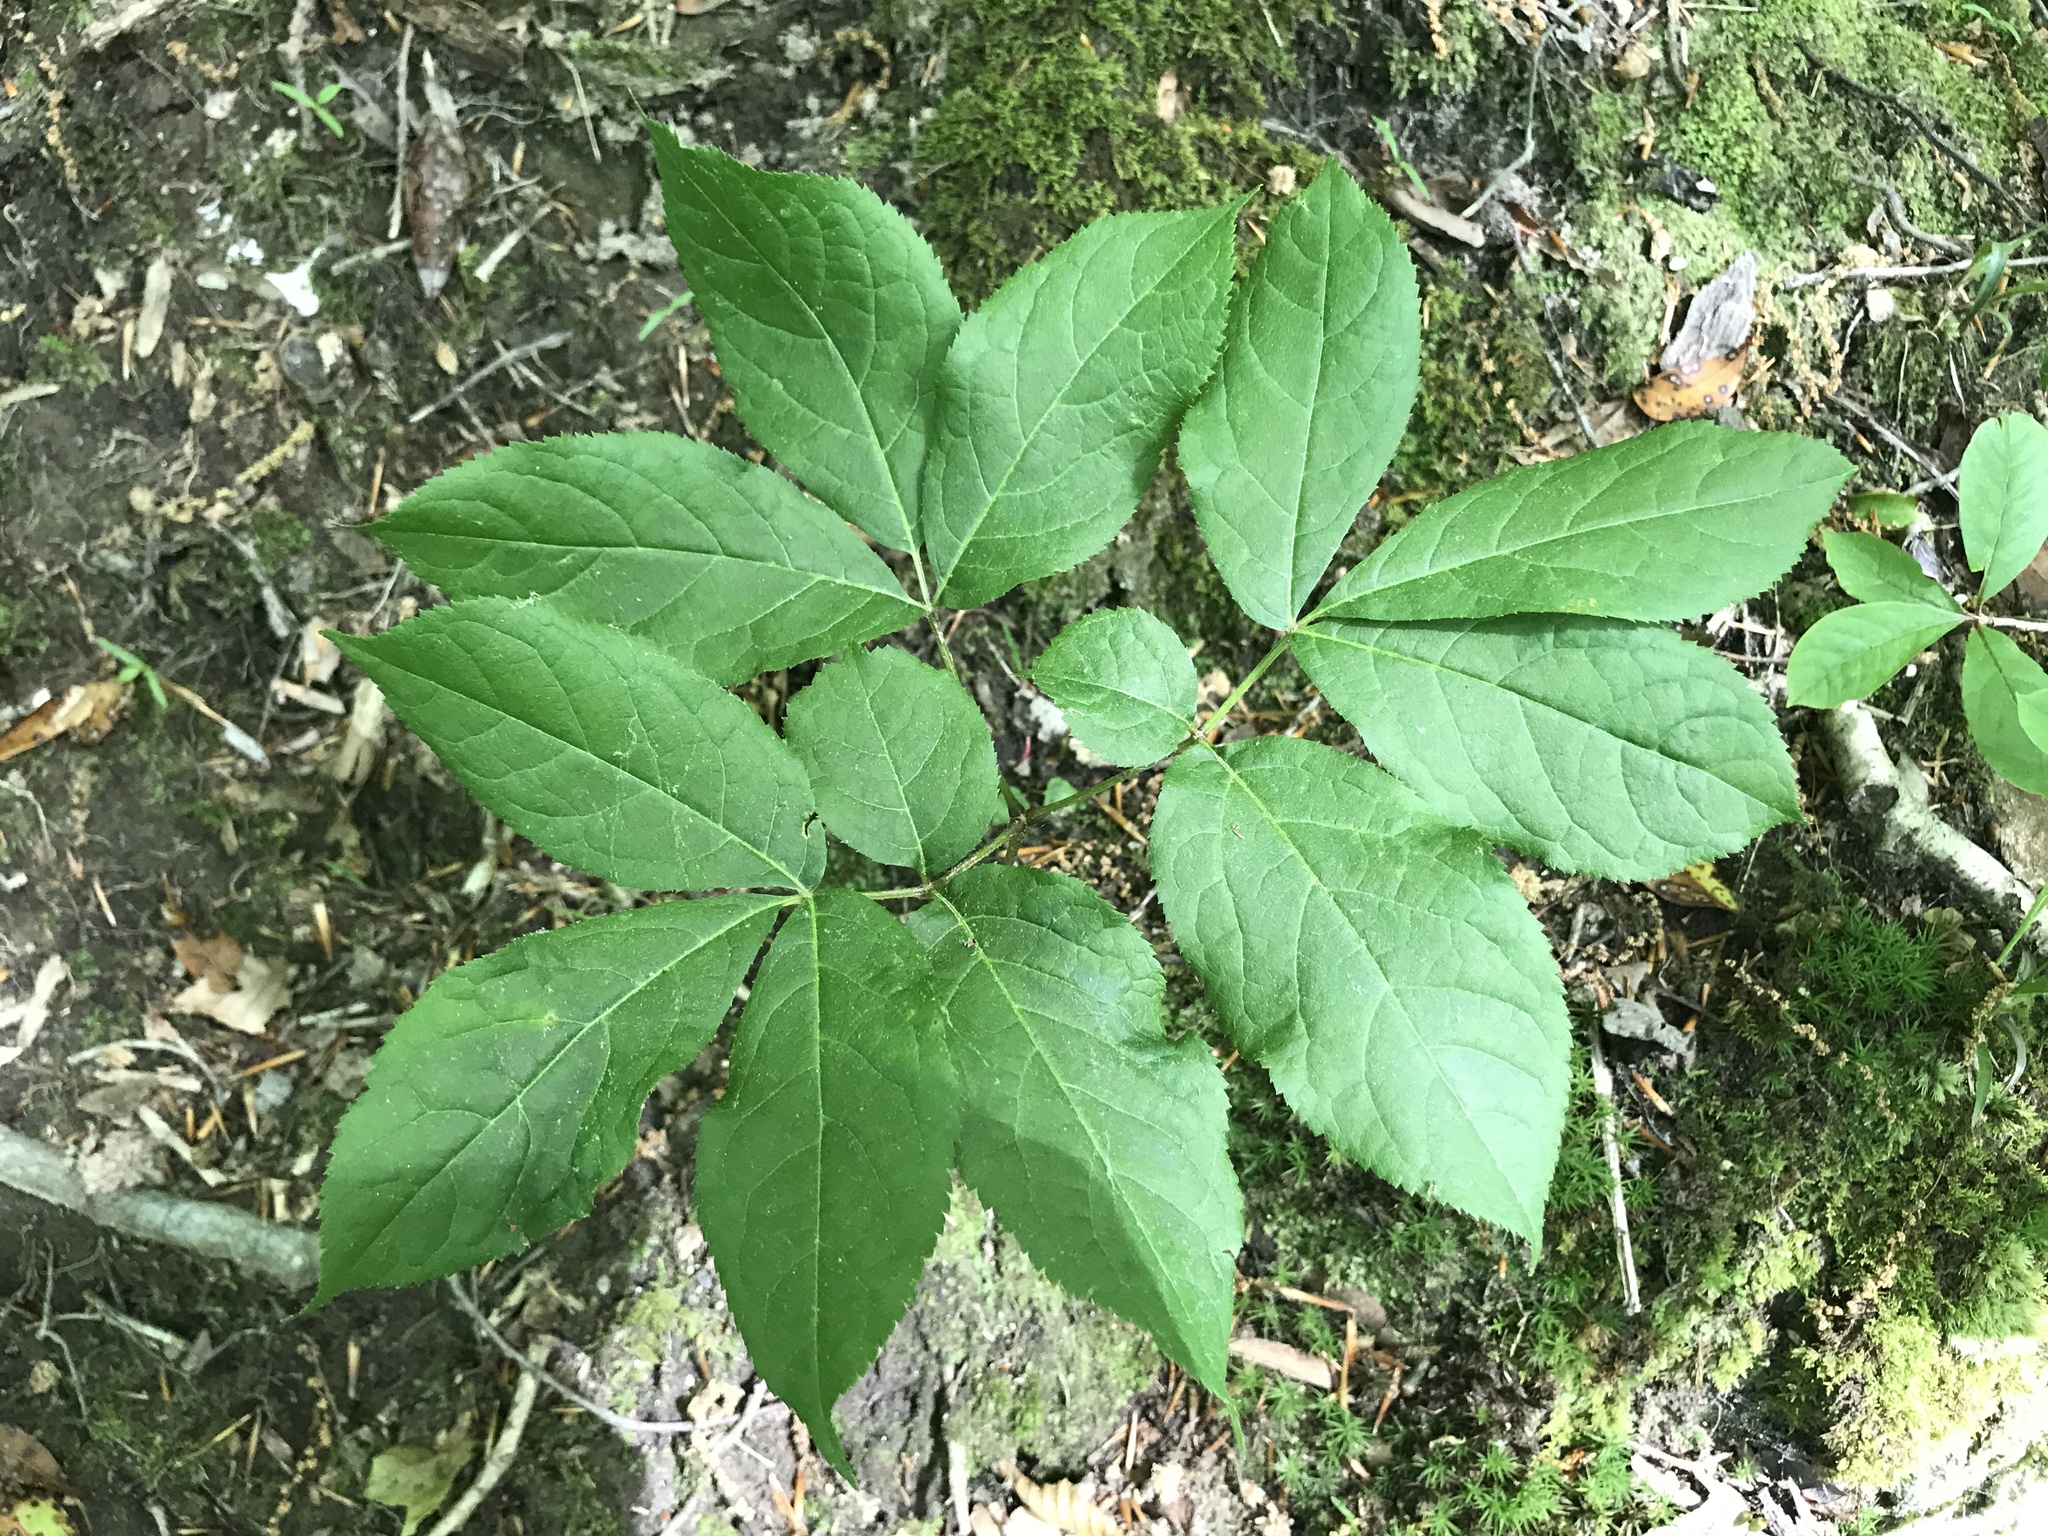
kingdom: Plantae
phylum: Tracheophyta
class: Magnoliopsida
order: Apiales
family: Araliaceae
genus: Aralia
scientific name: Aralia nudicaulis
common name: Wild sarsaparilla
